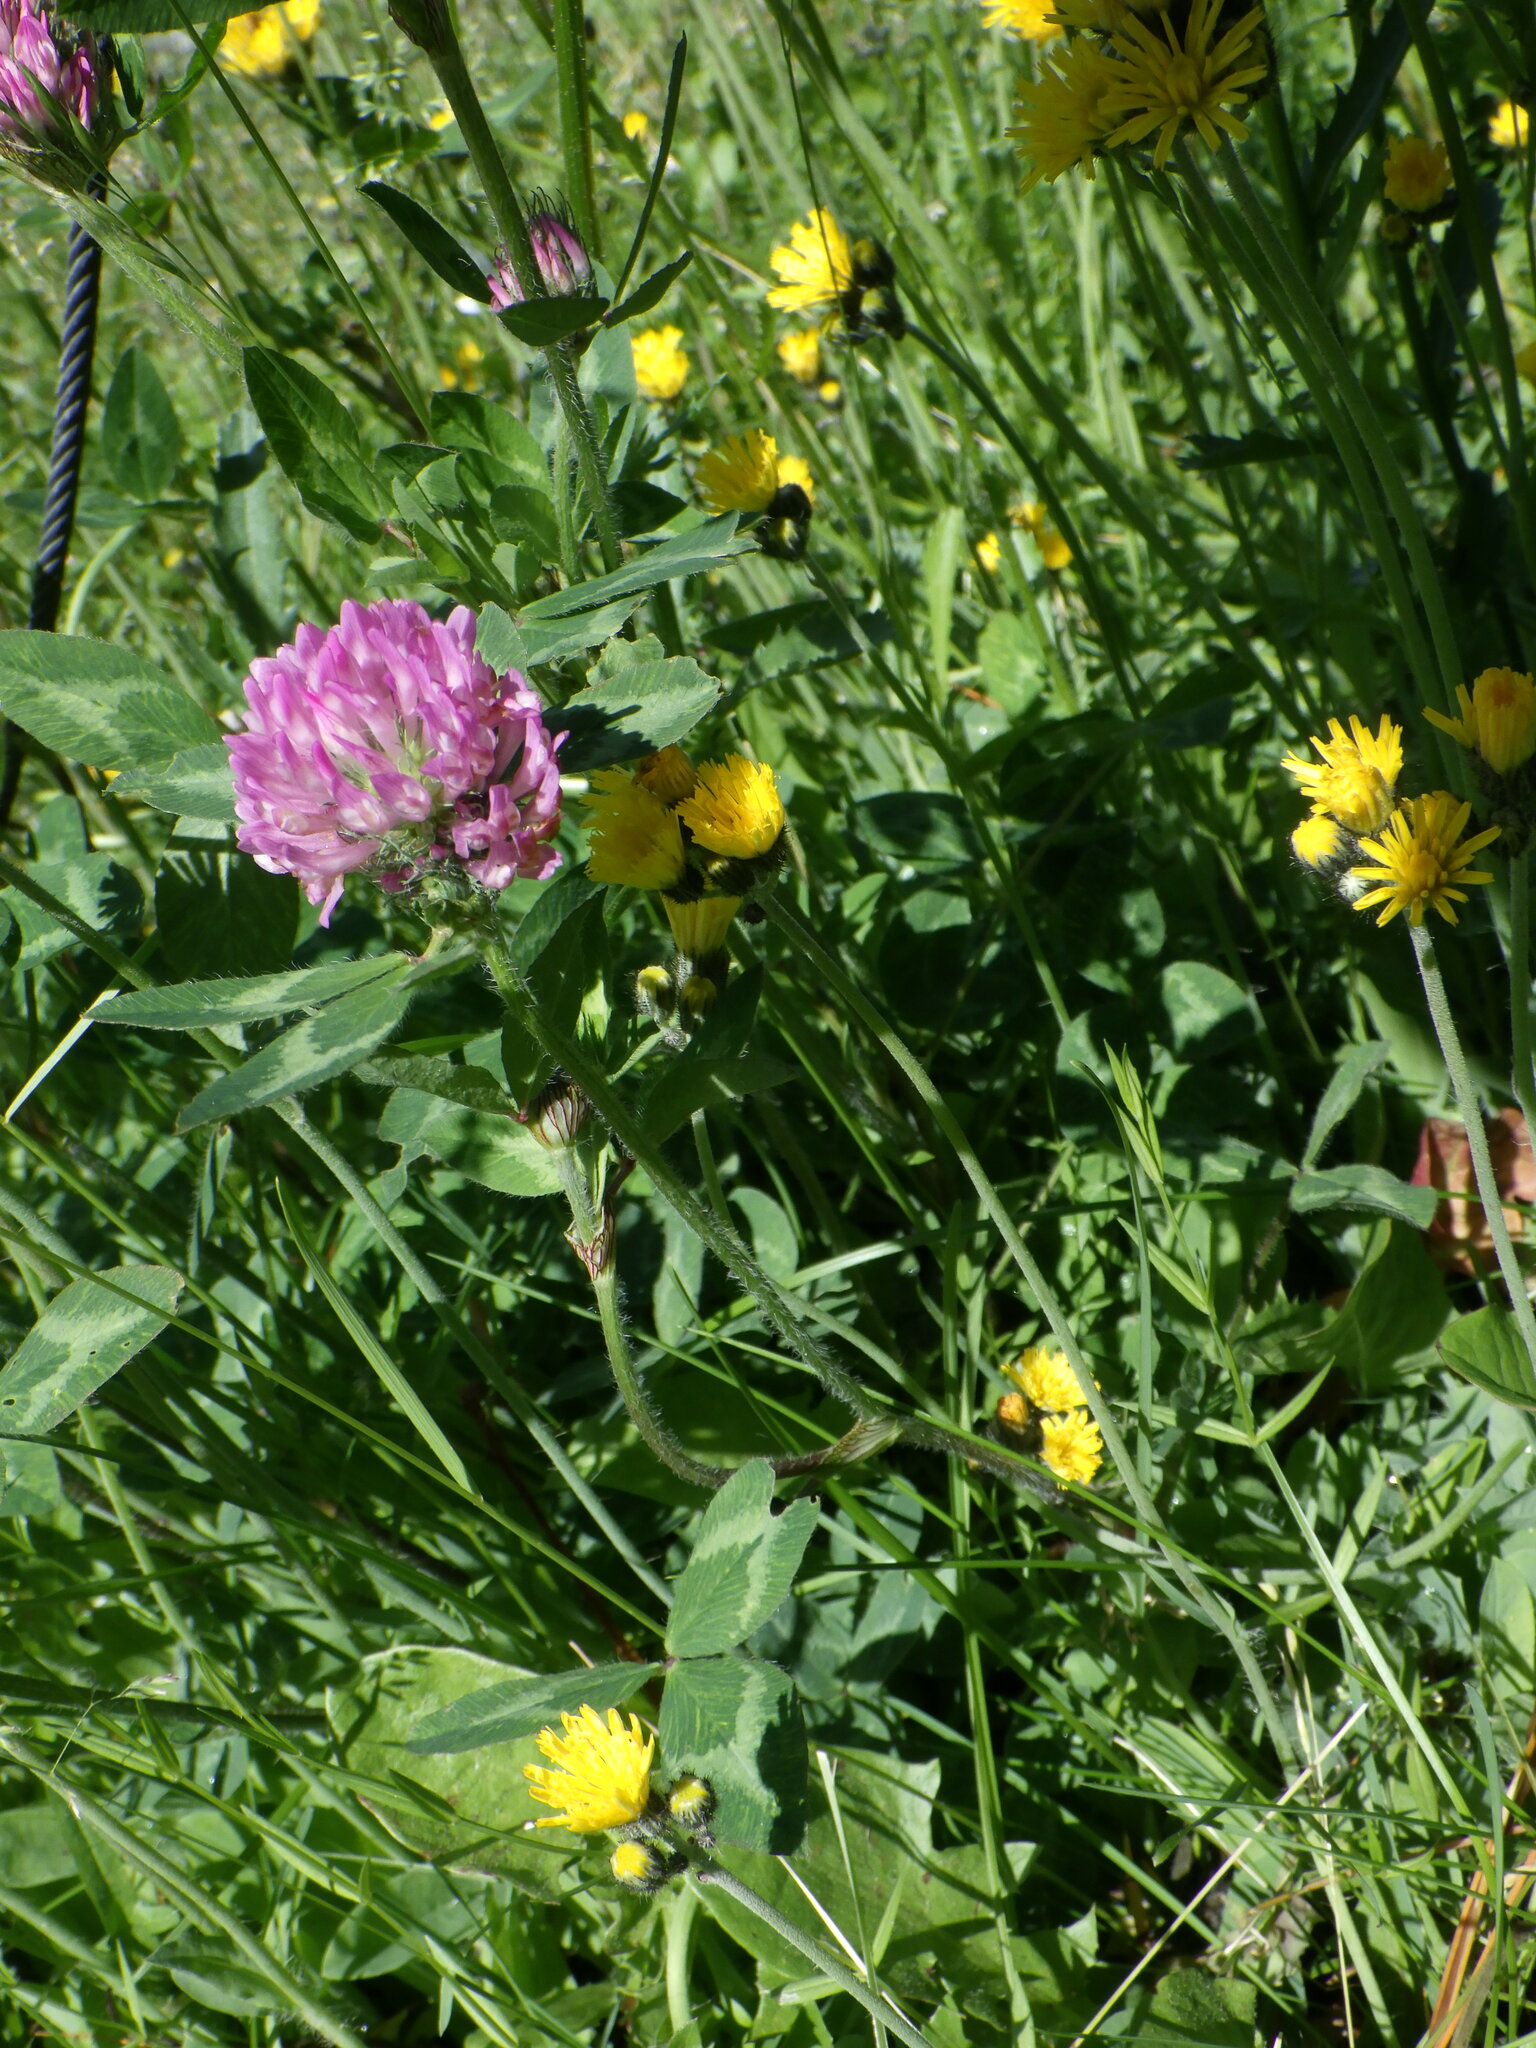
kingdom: Plantae
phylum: Tracheophyta
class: Magnoliopsida
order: Fabales
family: Fabaceae
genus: Trifolium
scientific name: Trifolium pratense
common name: Red clover
